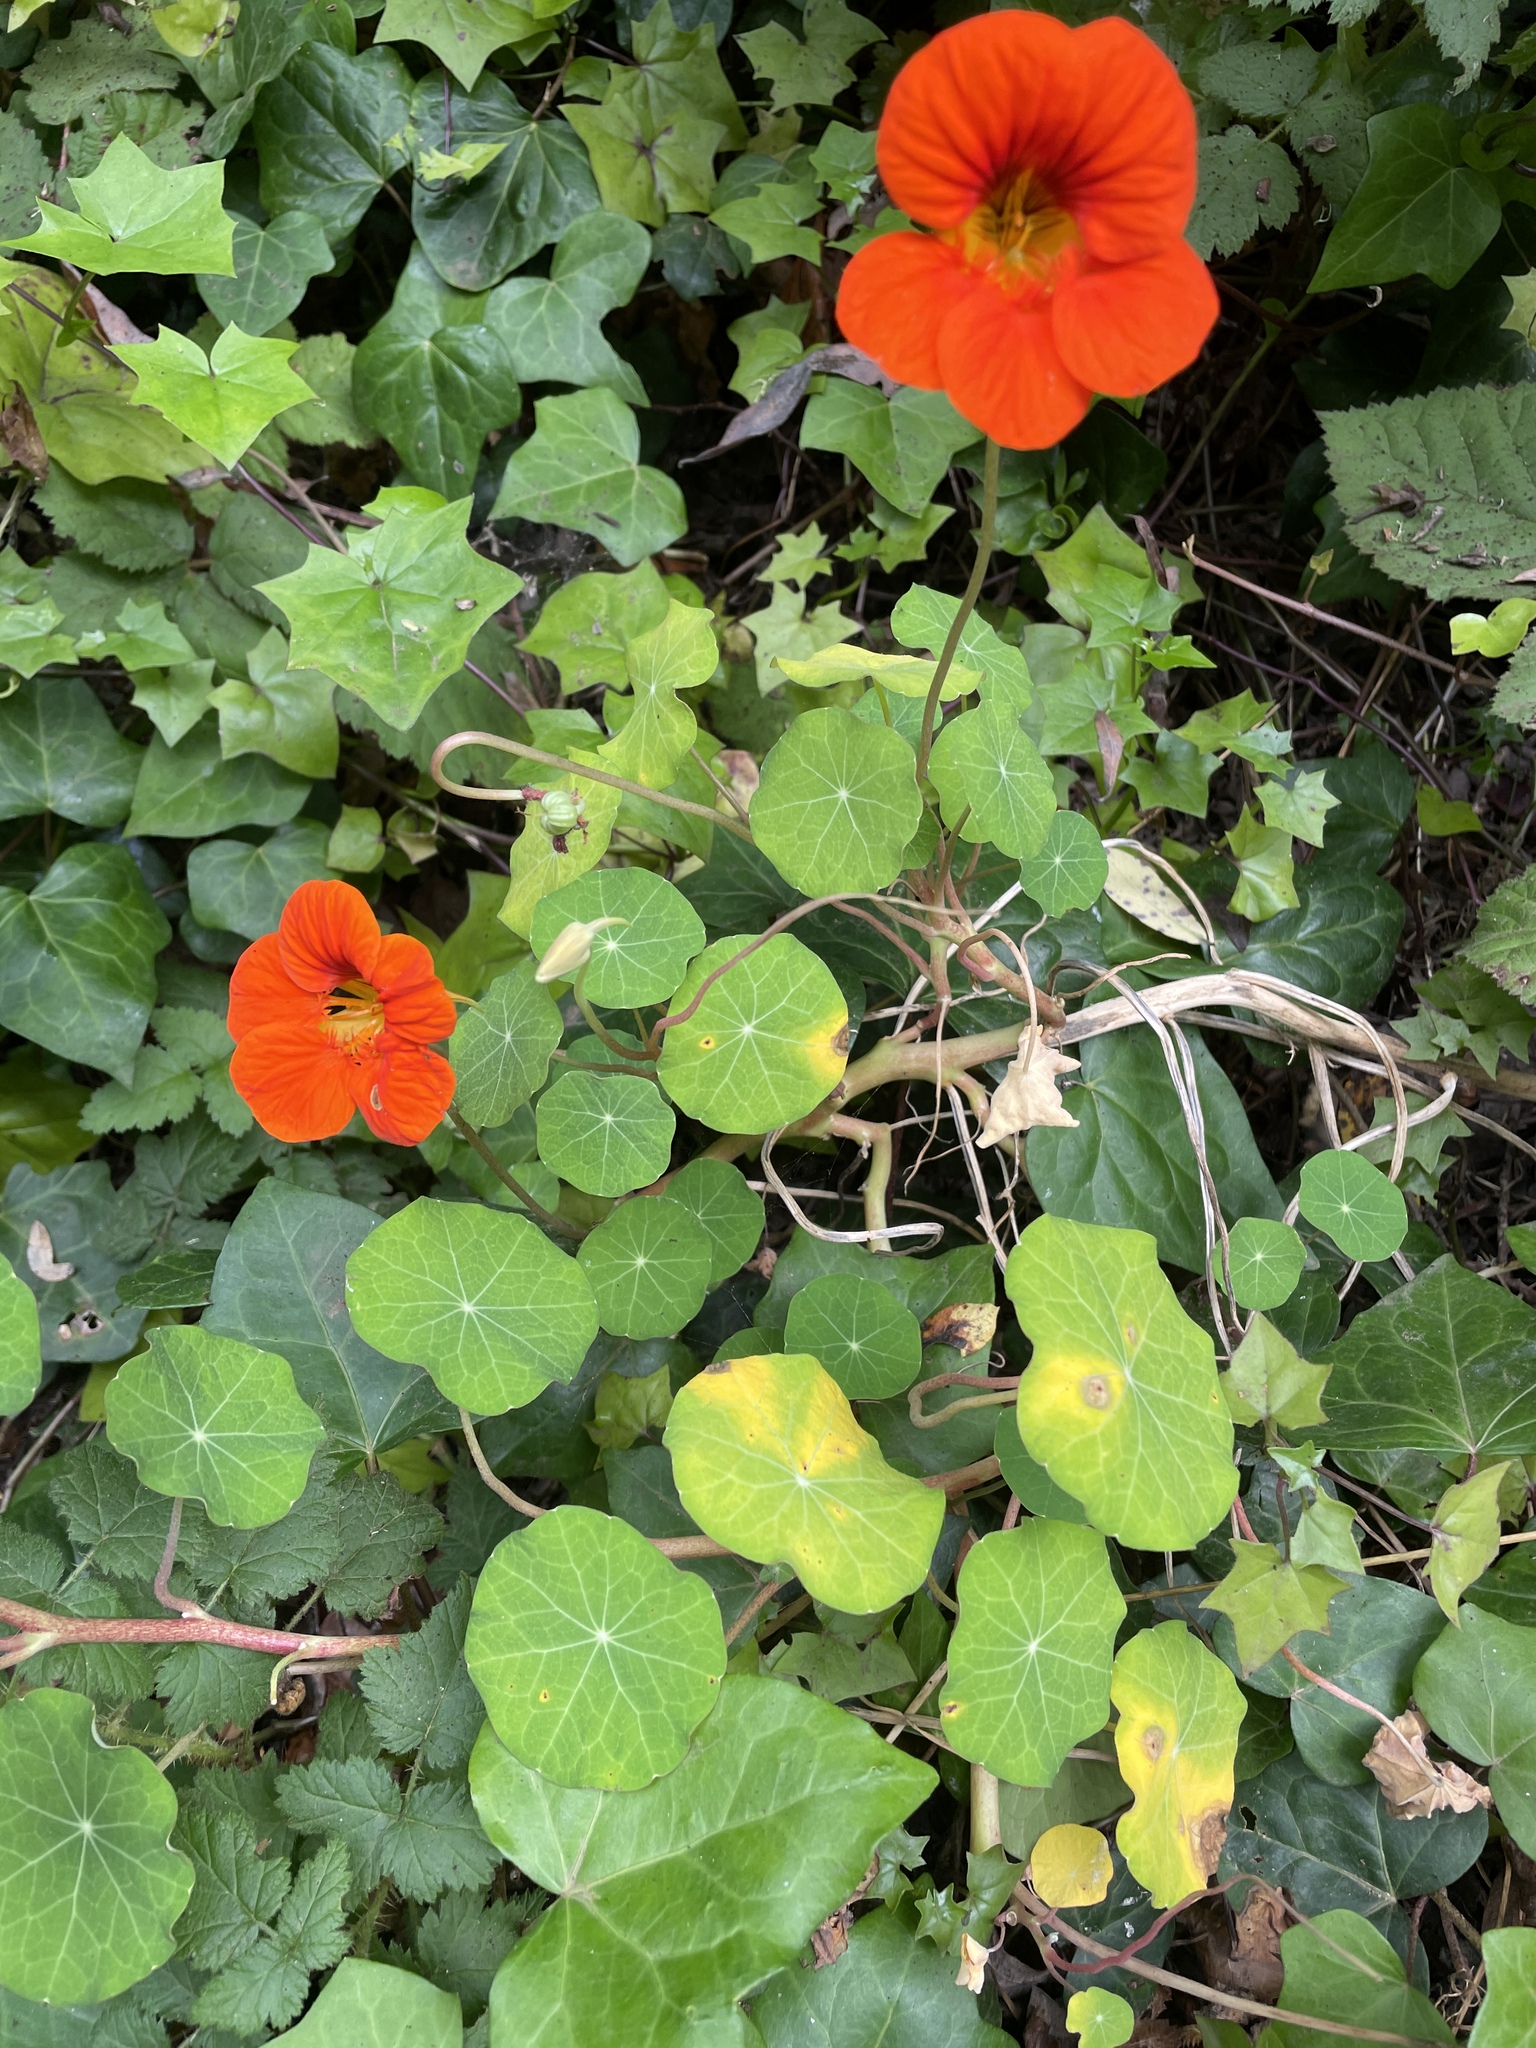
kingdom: Plantae
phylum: Tracheophyta
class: Magnoliopsida
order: Brassicales
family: Tropaeolaceae
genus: Tropaeolum
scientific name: Tropaeolum majus
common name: Nasturtium
